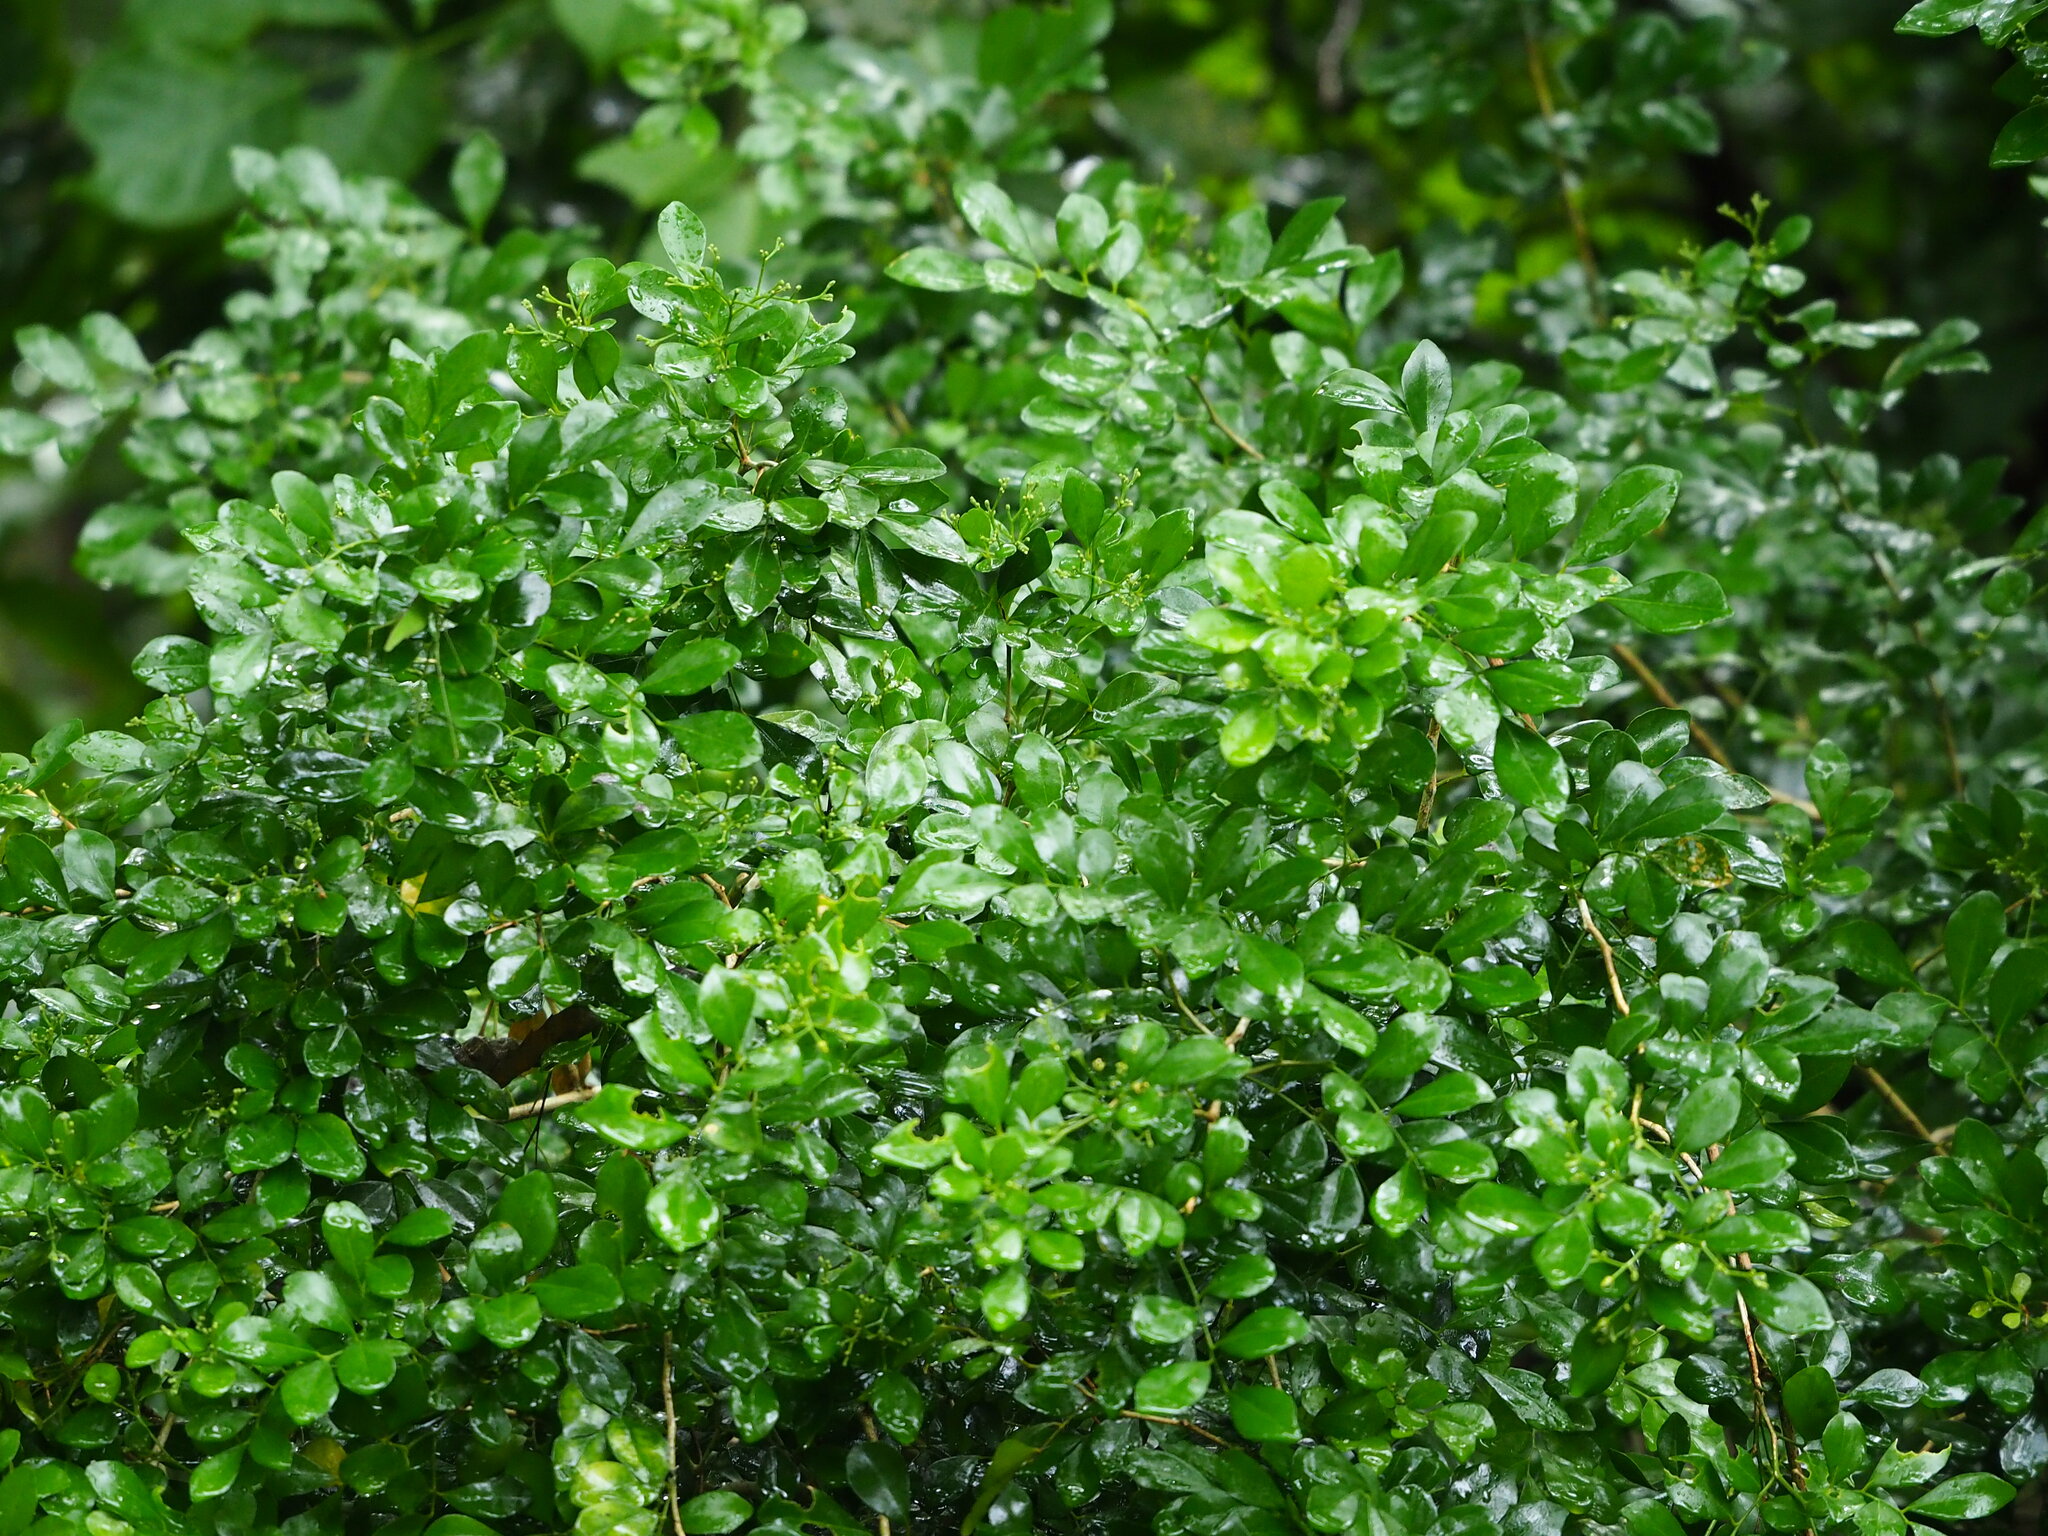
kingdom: Plantae
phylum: Tracheophyta
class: Magnoliopsida
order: Sapindales
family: Rutaceae
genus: Murraya
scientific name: Murraya paniculata
